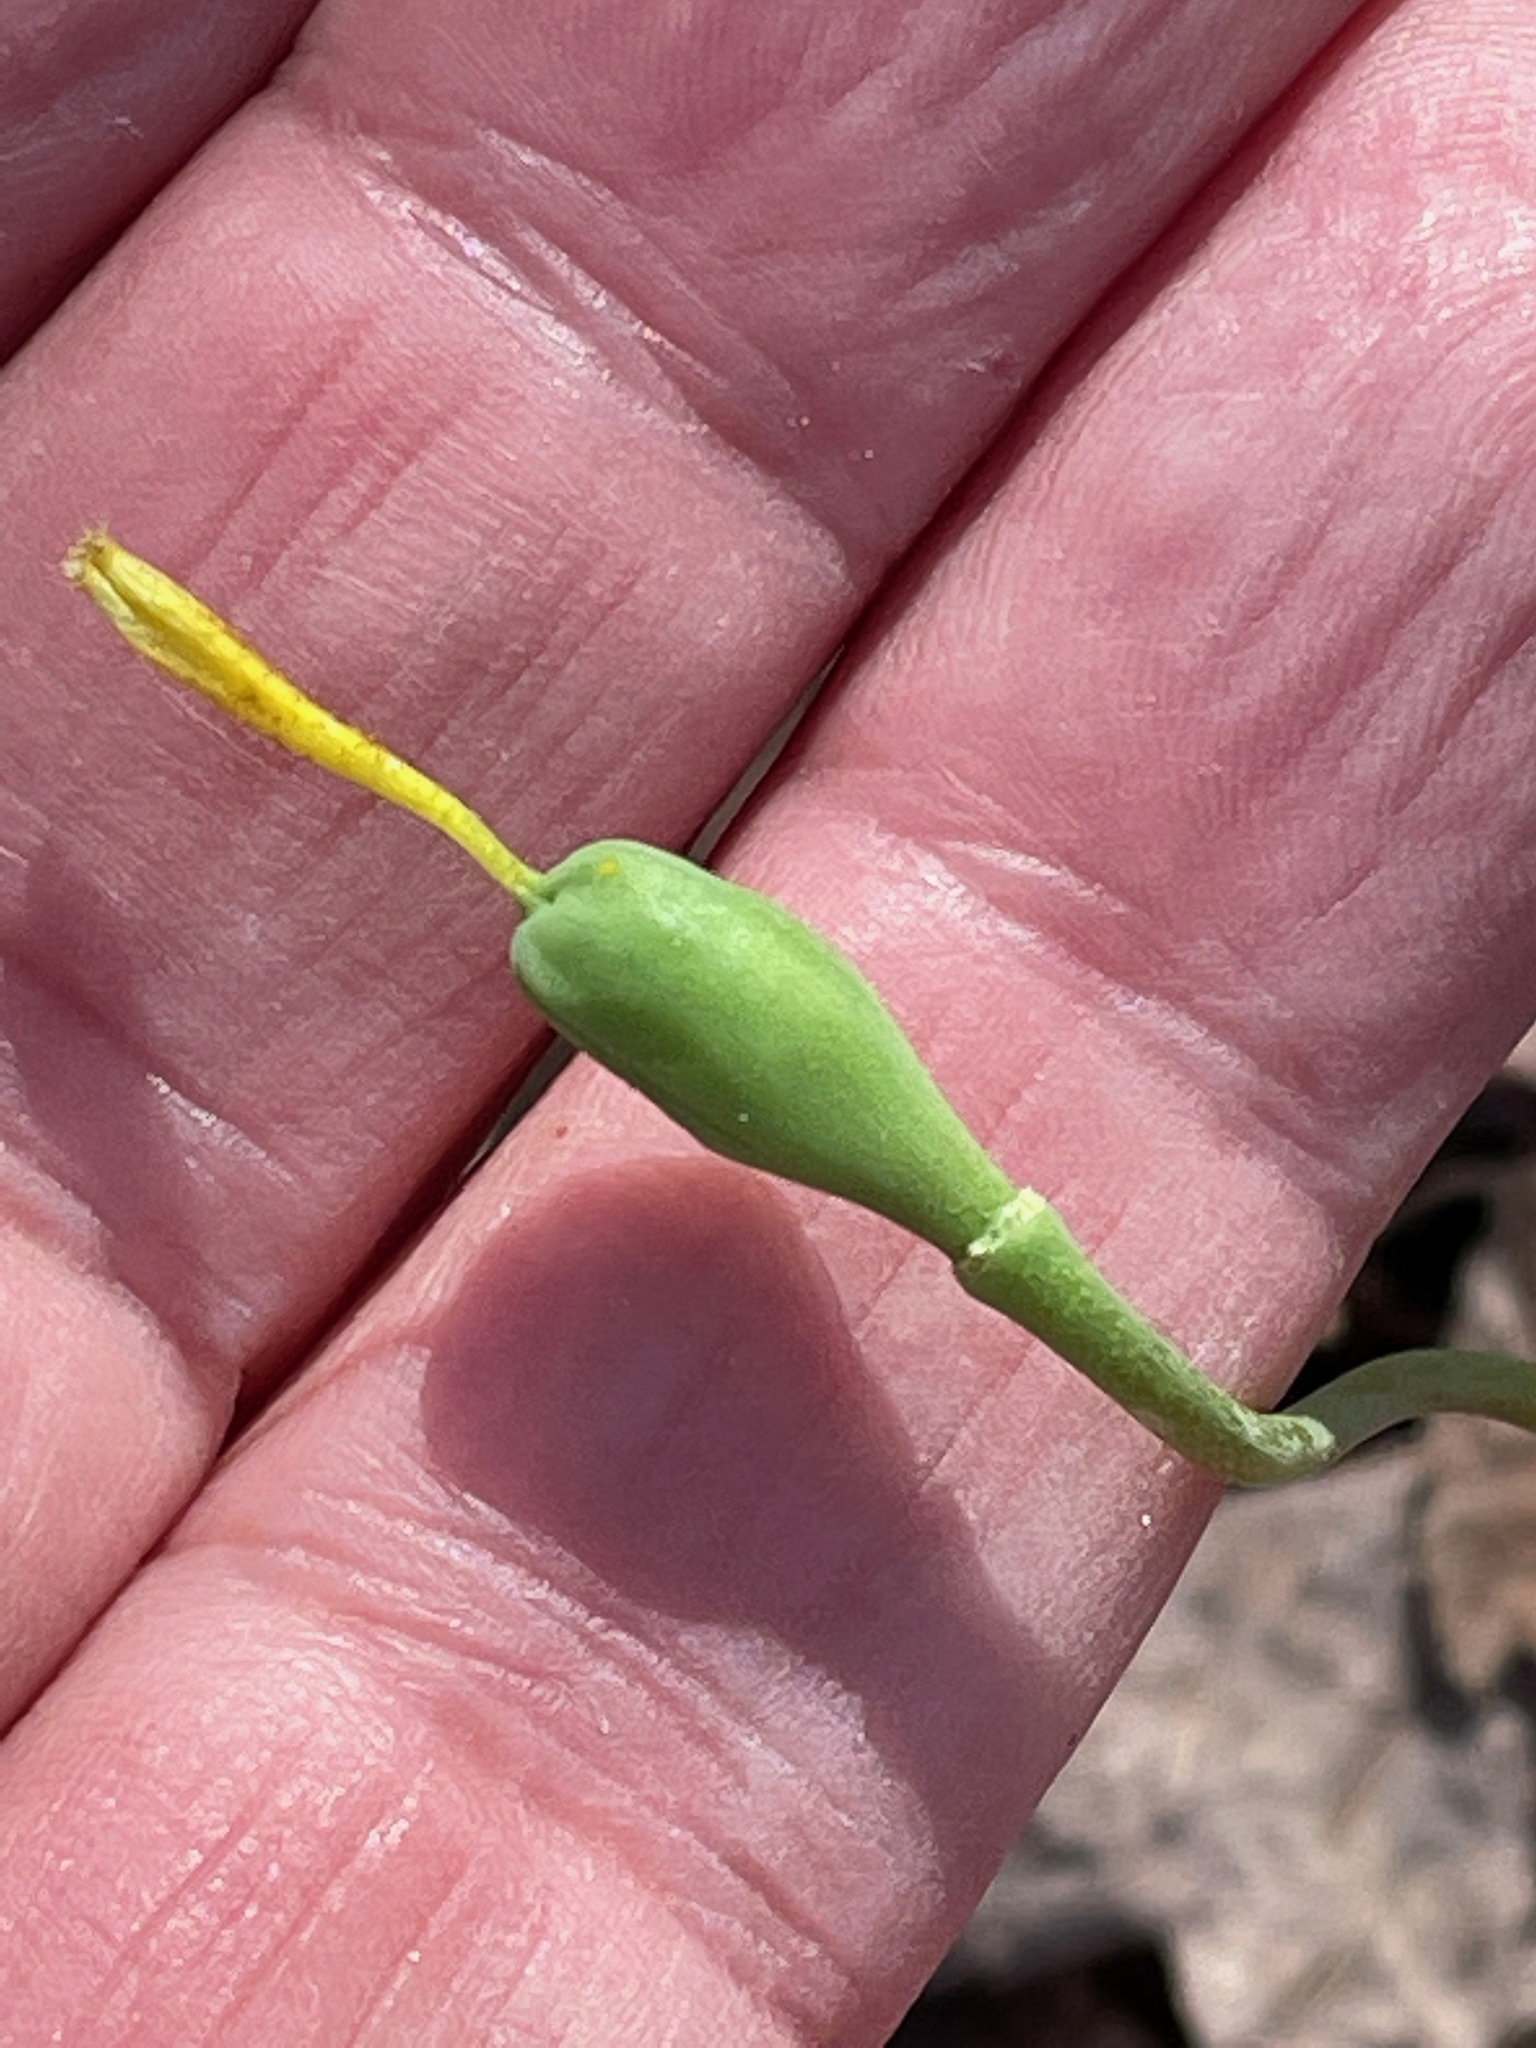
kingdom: Plantae
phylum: Tracheophyta
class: Liliopsida
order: Liliales
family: Liliaceae
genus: Erythronium
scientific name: Erythronium americanum
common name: Yellow adder's-tongue
